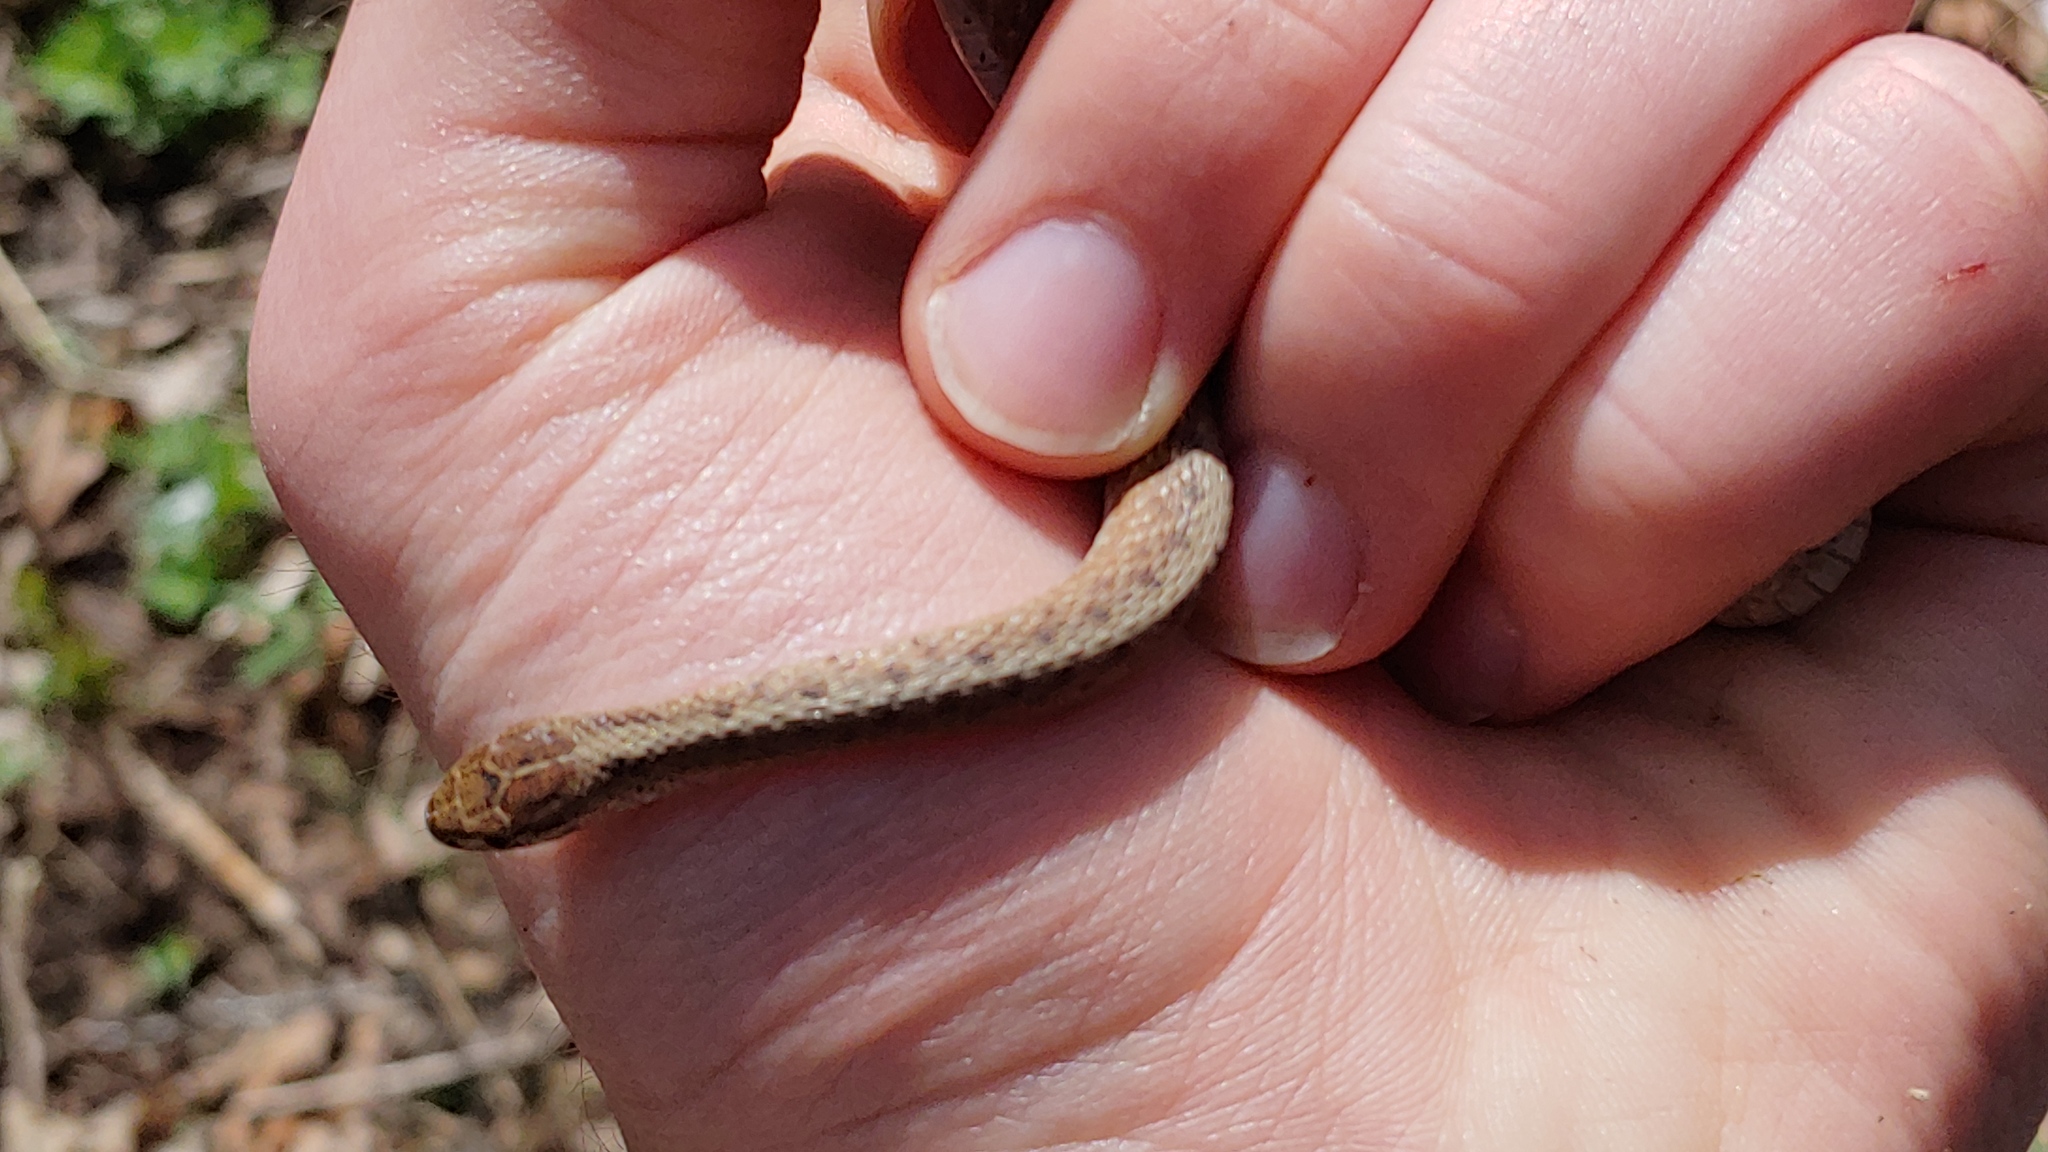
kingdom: Animalia
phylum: Chordata
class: Squamata
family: Colubridae
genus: Storeria
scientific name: Storeria dekayi
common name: (dekay’s) brown snake
